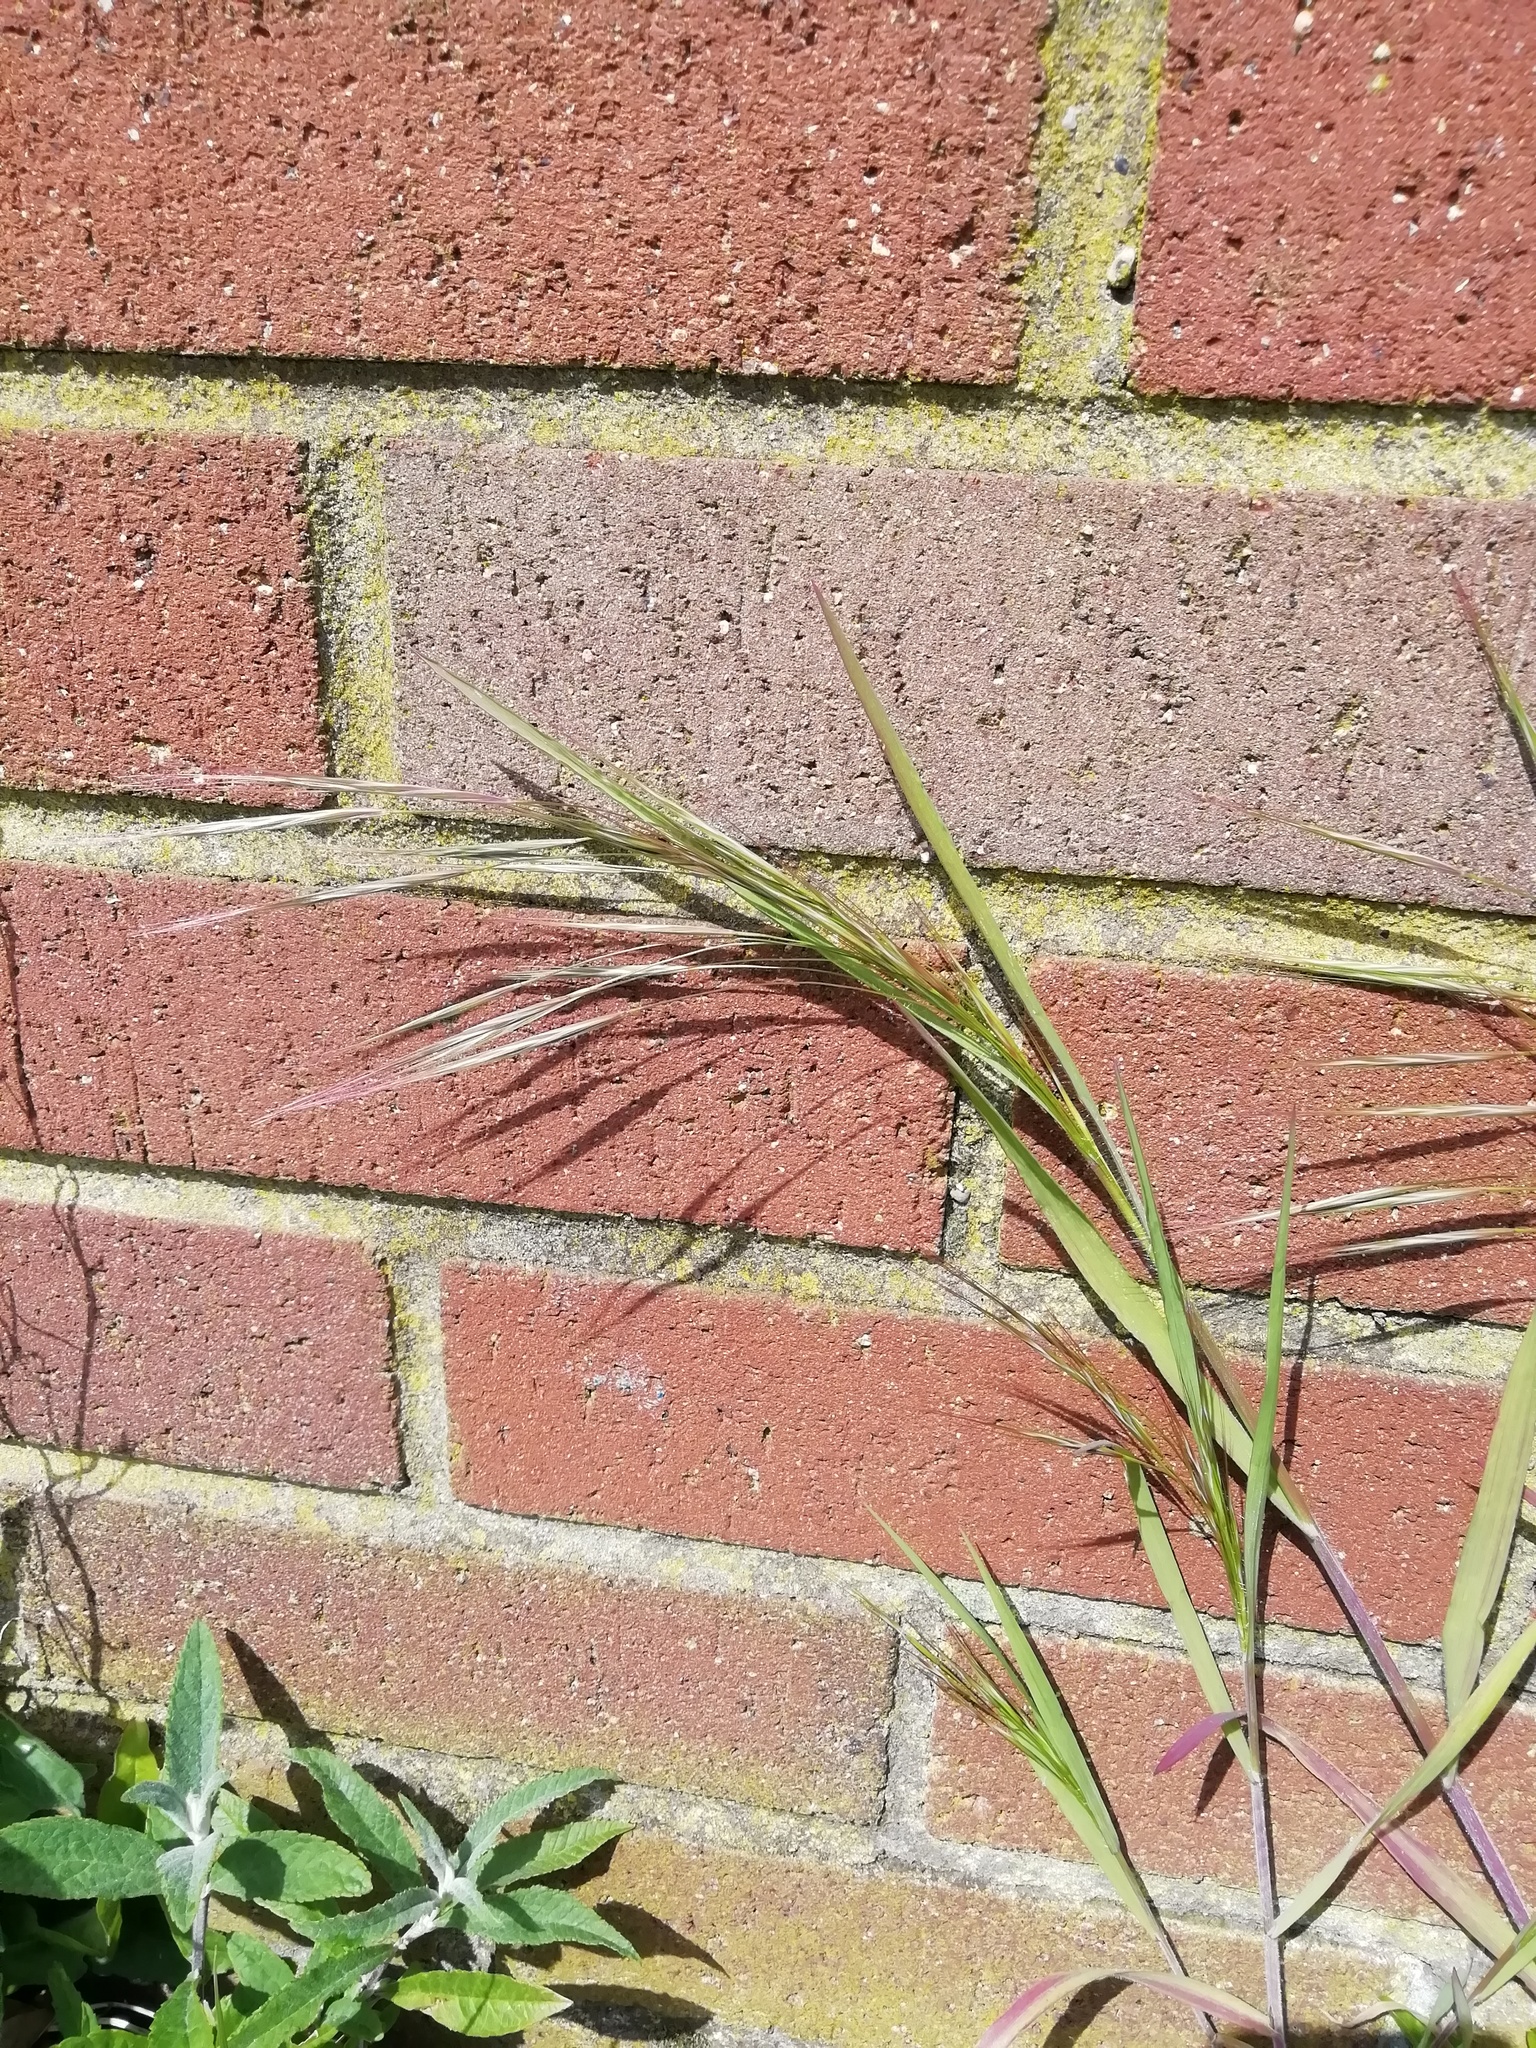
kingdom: Plantae
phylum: Tracheophyta
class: Liliopsida
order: Poales
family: Poaceae
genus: Bromus
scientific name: Bromus sterilis
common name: Poverty brome
